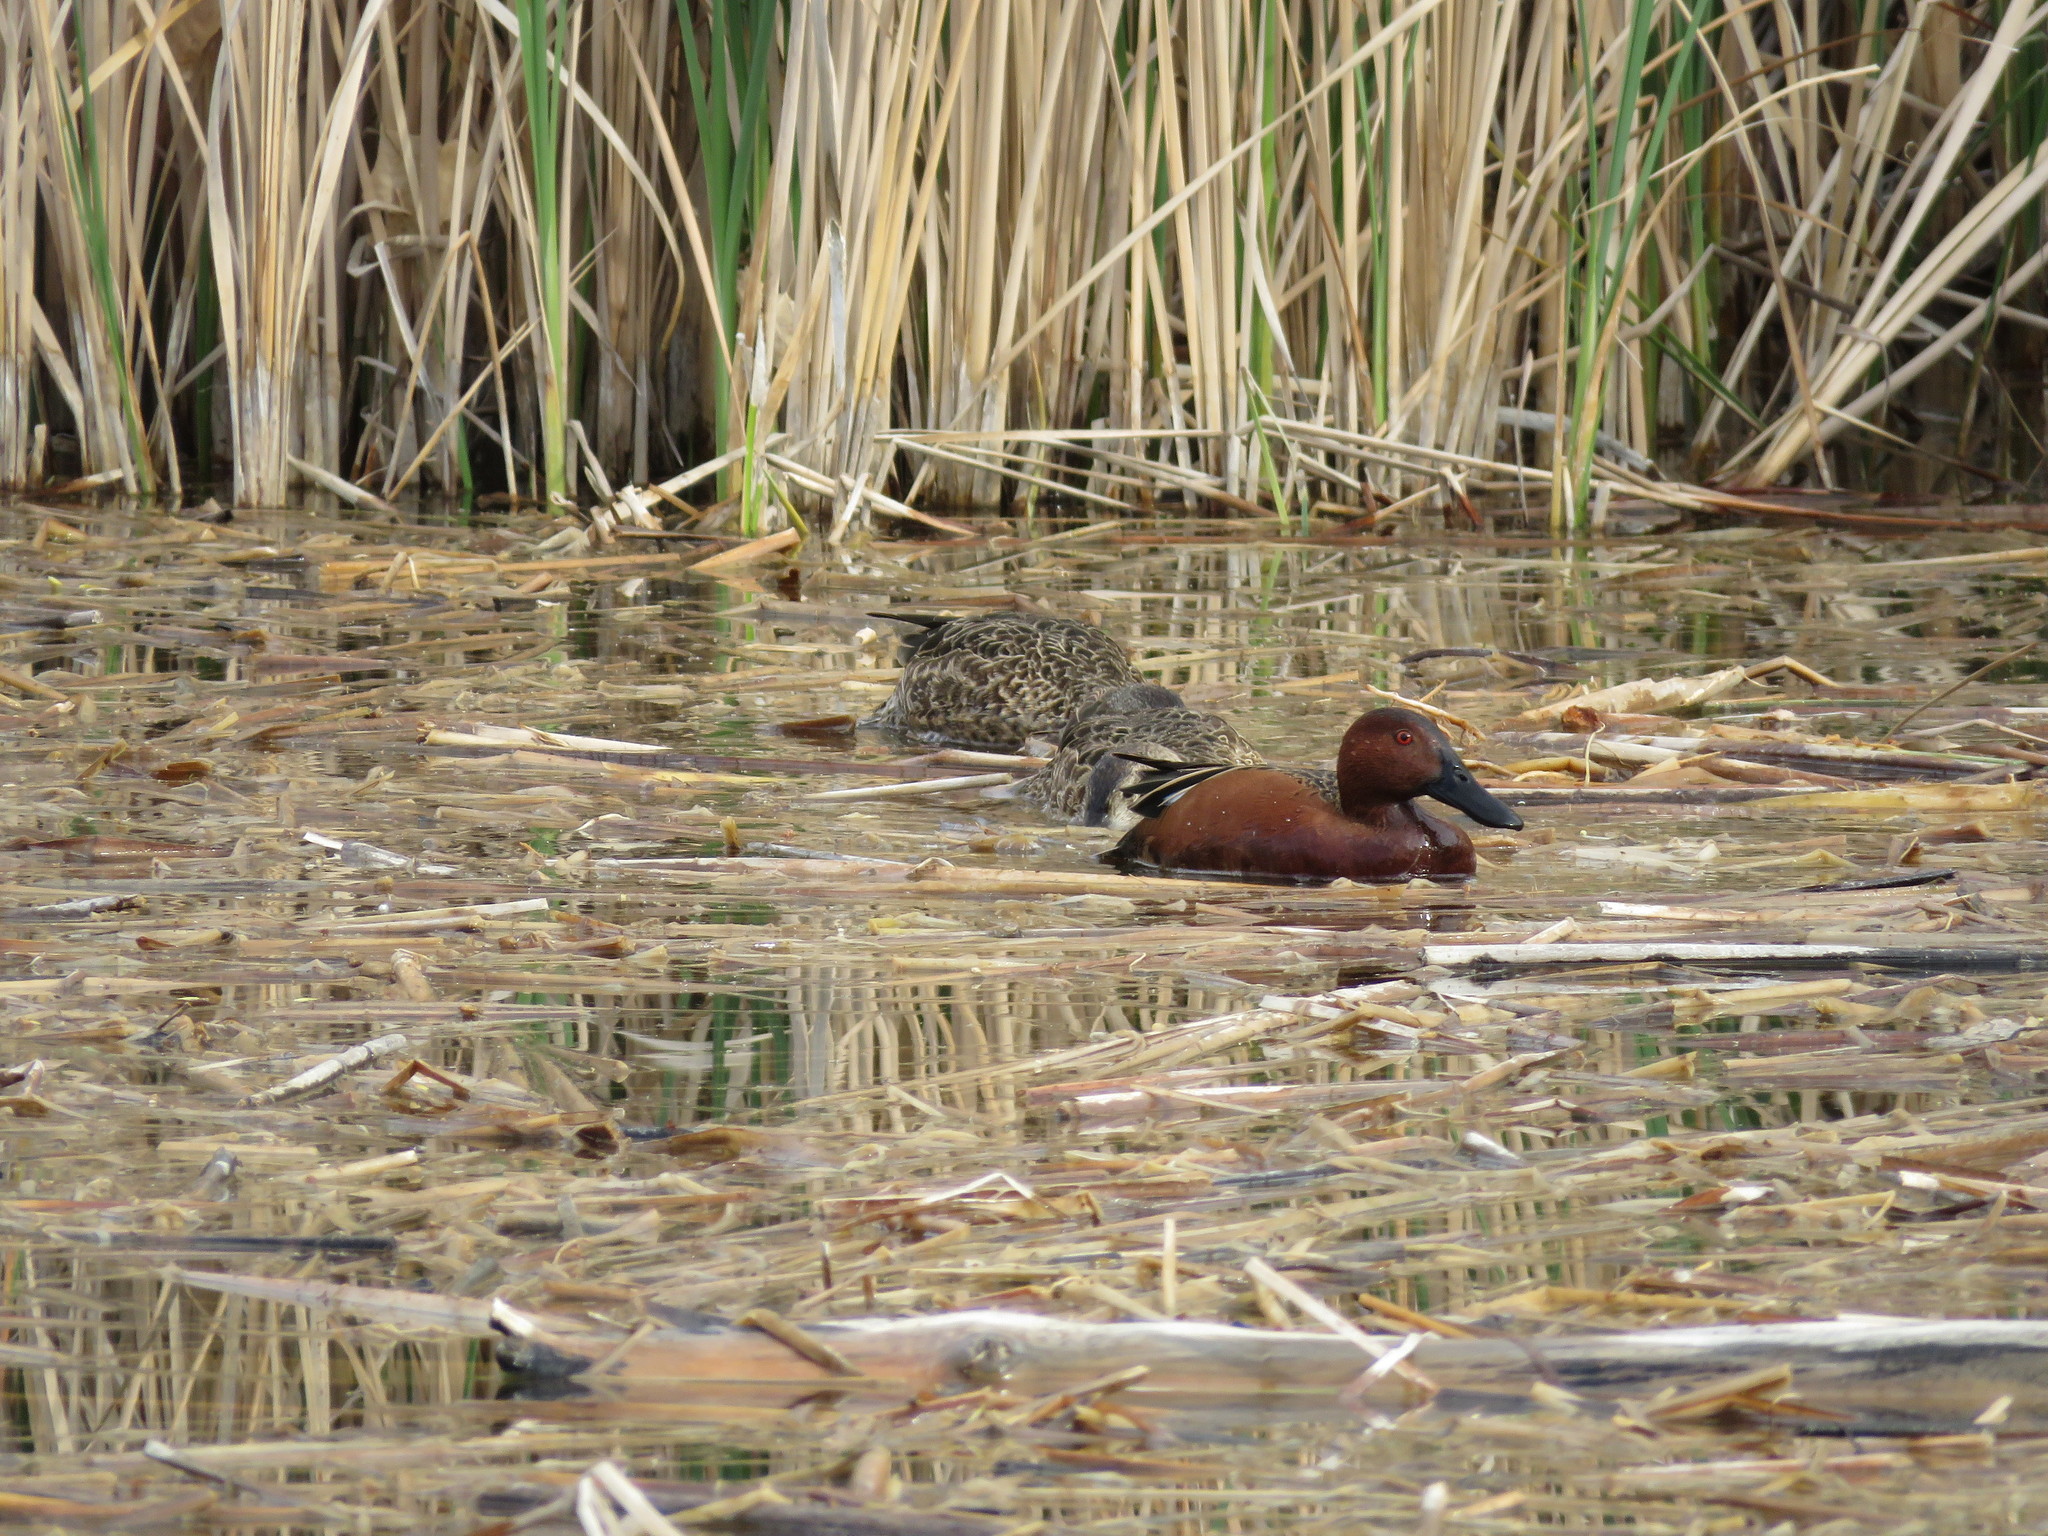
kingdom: Animalia
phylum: Chordata
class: Aves
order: Anseriformes
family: Anatidae
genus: Spatula
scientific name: Spatula cyanoptera
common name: Cinnamon teal
